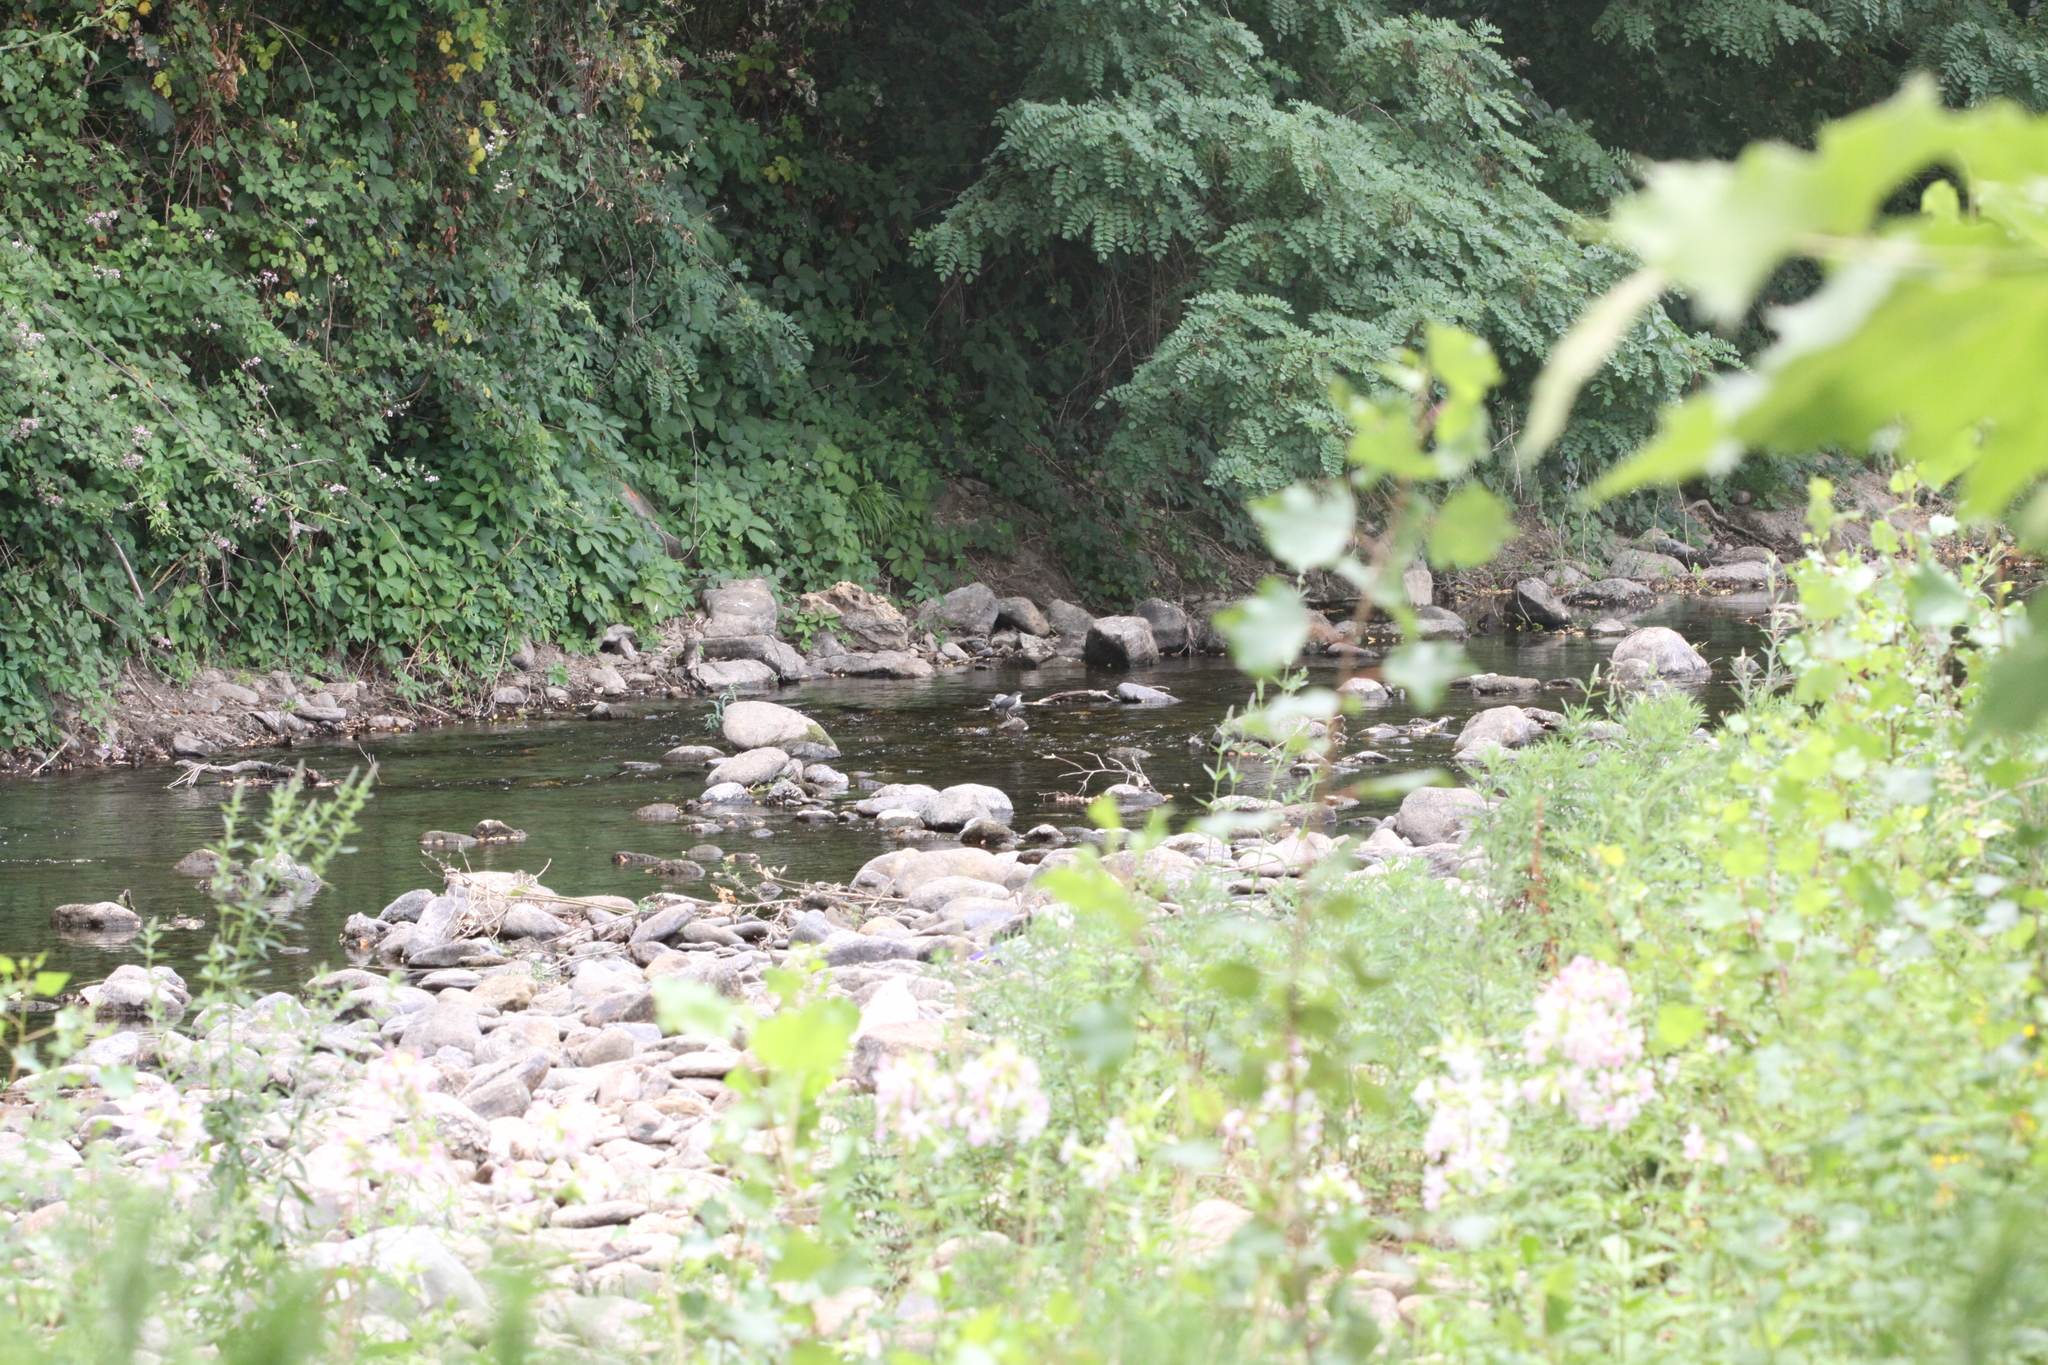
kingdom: Animalia
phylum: Chordata
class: Aves
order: Passeriformes
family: Cinclidae
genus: Cinclus
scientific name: Cinclus cinclus
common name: White-throated dipper
